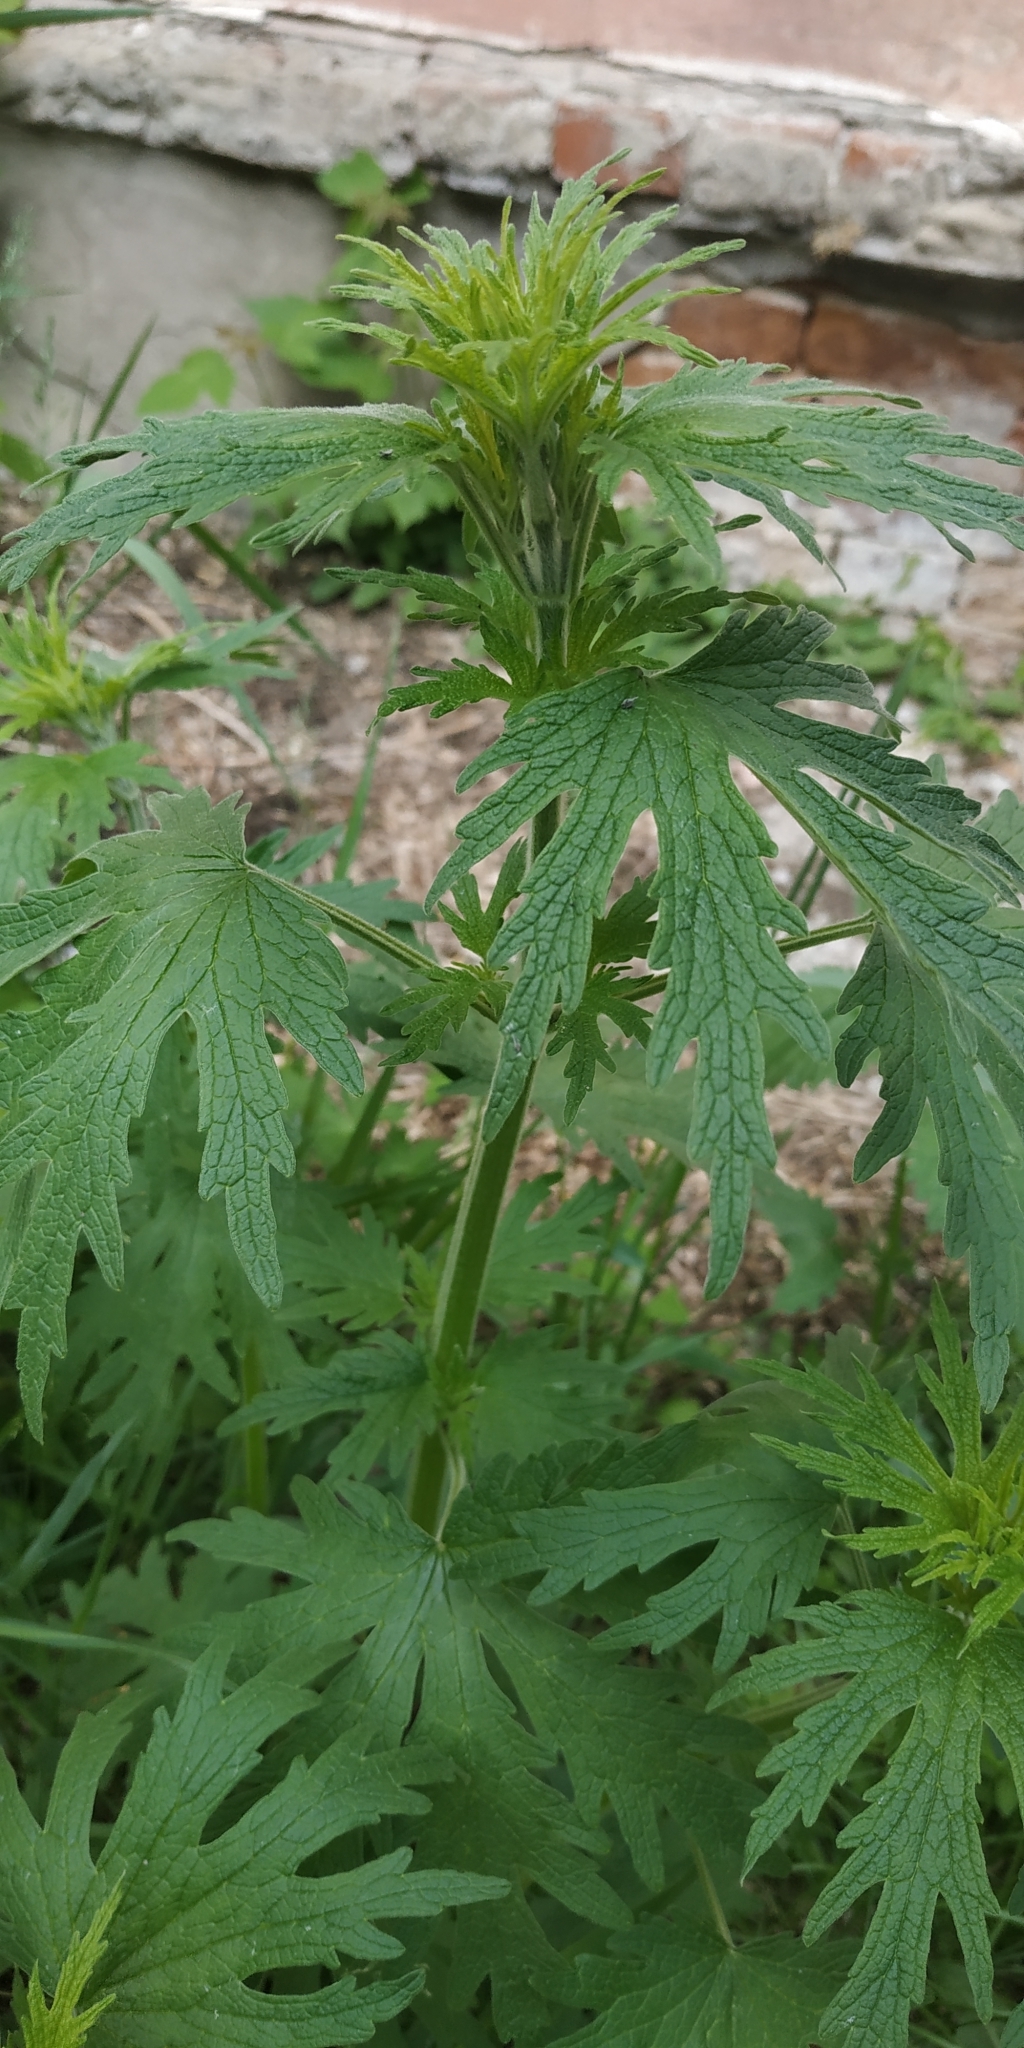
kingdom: Plantae
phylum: Tracheophyta
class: Magnoliopsida
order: Lamiales
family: Lamiaceae
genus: Leonurus
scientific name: Leonurus quinquelobatus
